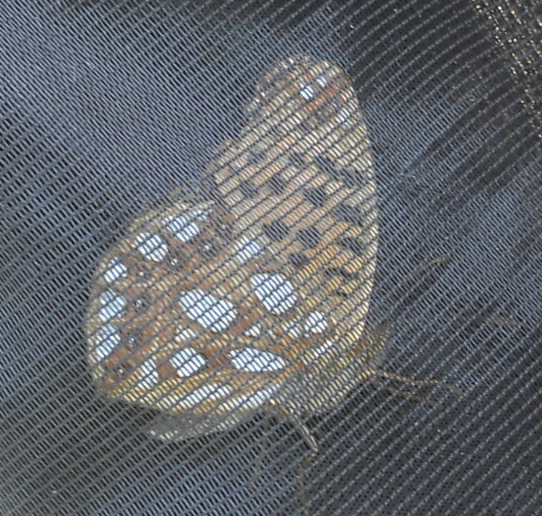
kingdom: Animalia
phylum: Arthropoda
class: Insecta
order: Lepidoptera
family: Nymphalidae
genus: Issoria
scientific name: Issoria lathonia
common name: Queen of spain fritillary
